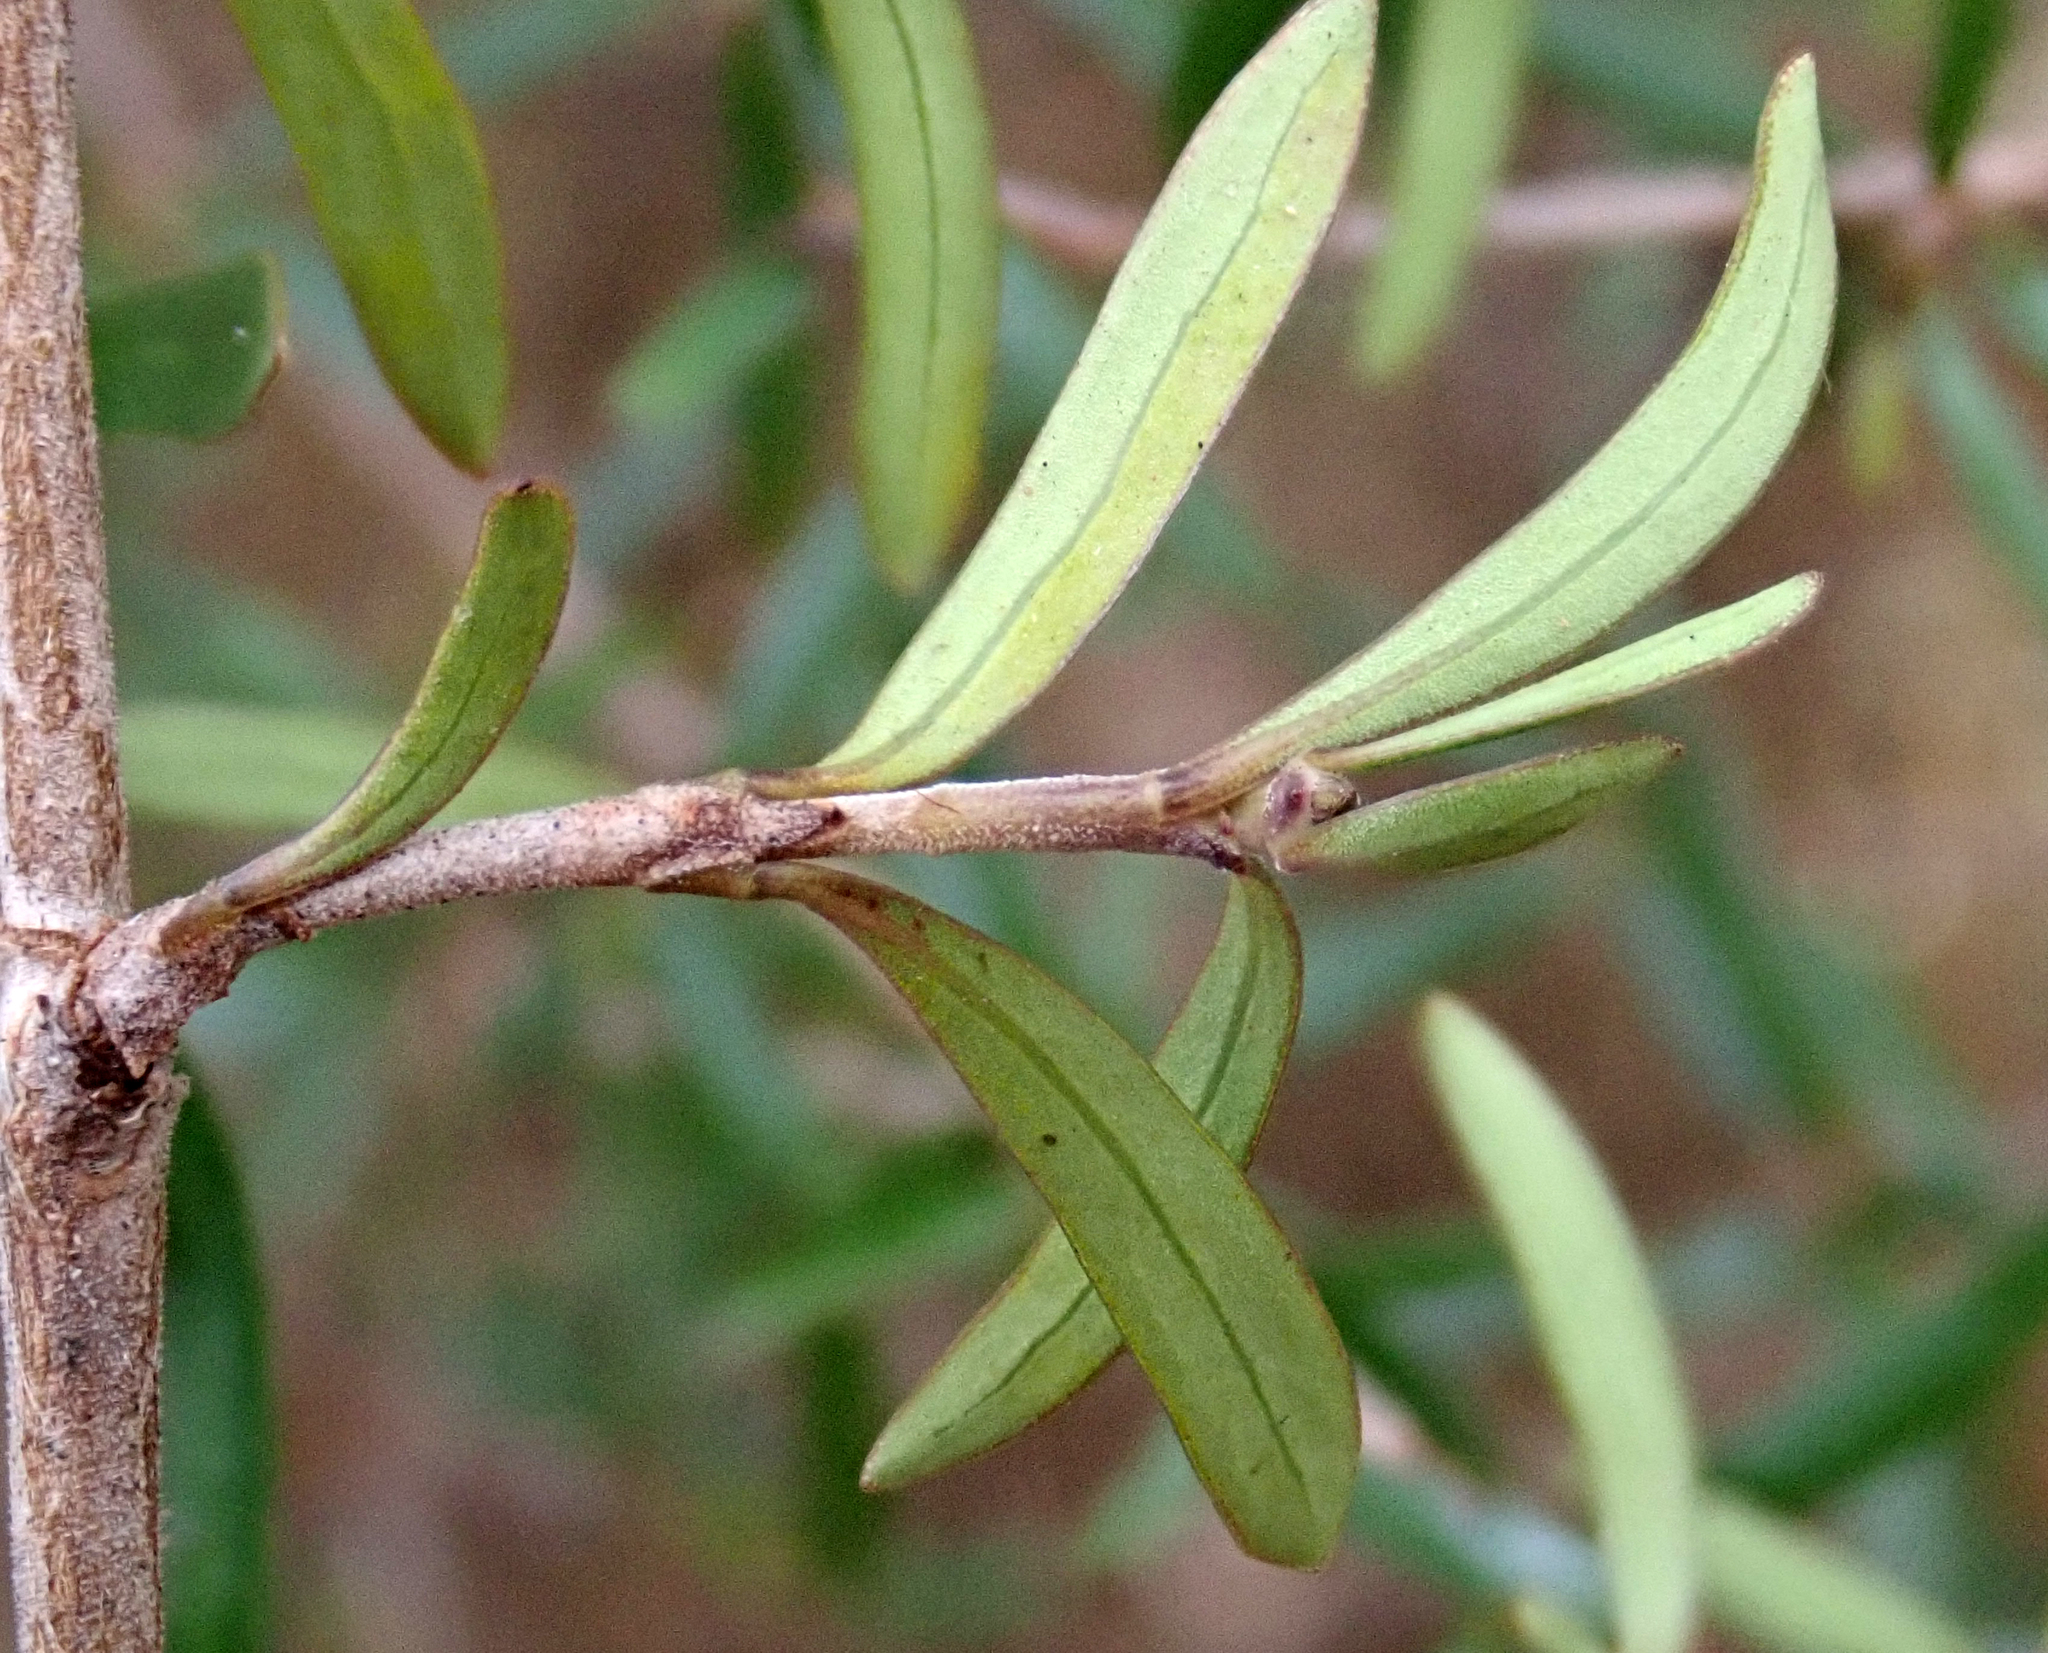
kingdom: Plantae
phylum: Tracheophyta
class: Magnoliopsida
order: Gentianales
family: Rubiaceae
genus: Coprosma
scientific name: Coprosma propinqua
